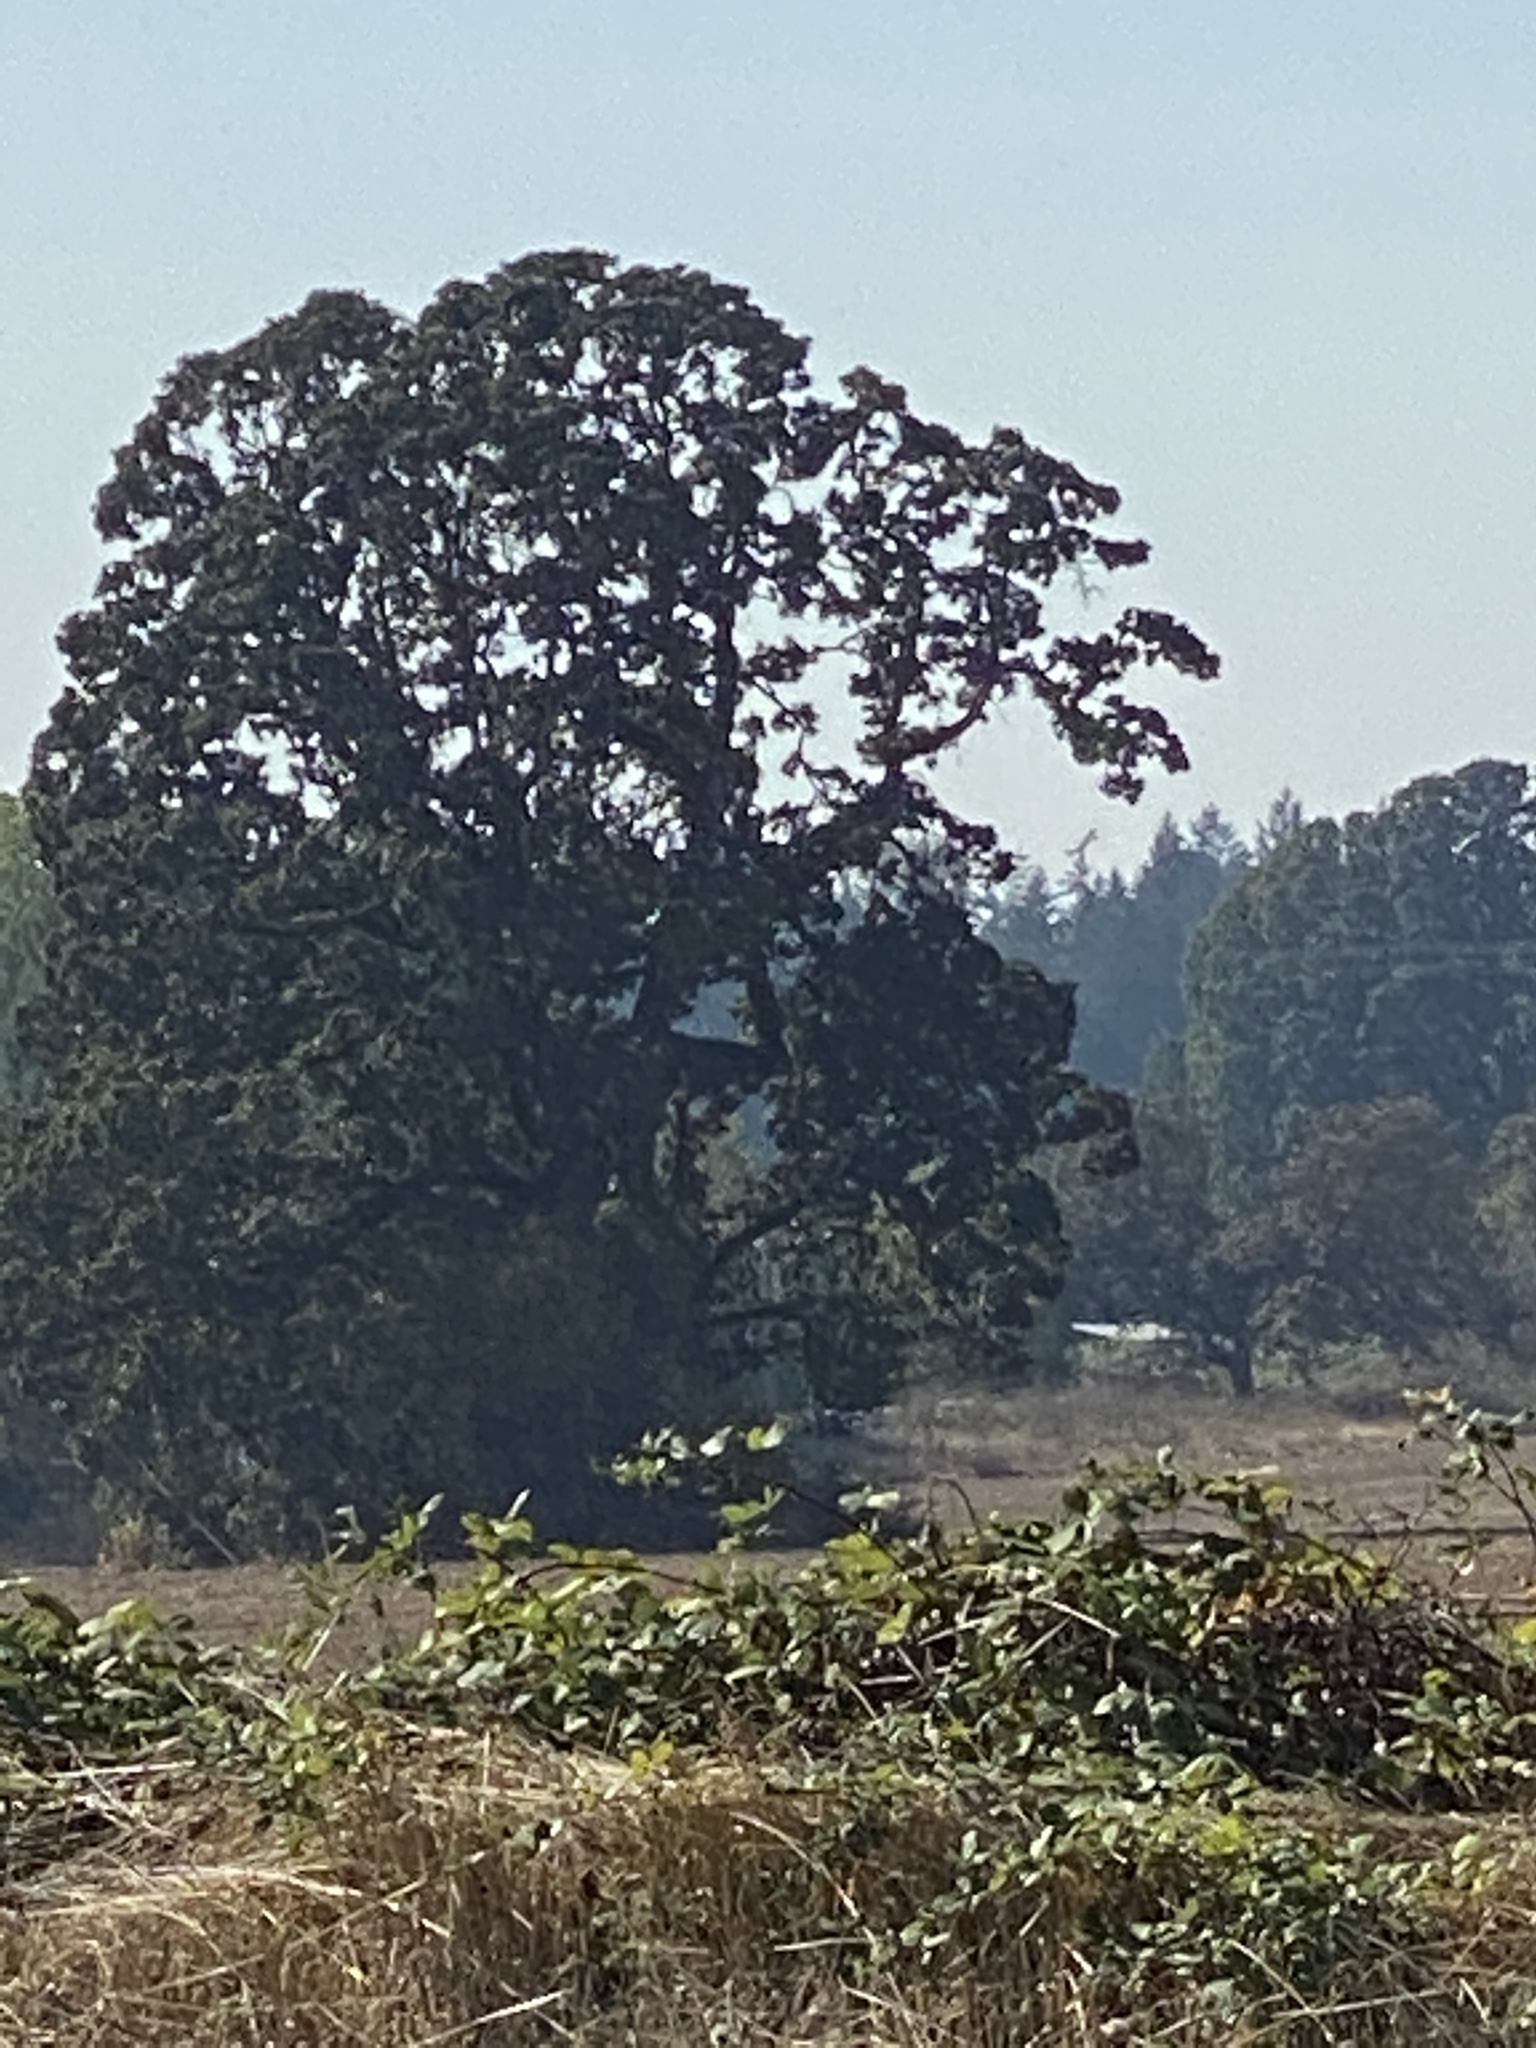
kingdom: Plantae
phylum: Tracheophyta
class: Magnoliopsida
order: Fagales
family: Fagaceae
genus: Quercus
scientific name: Quercus garryana
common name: Garry oak
